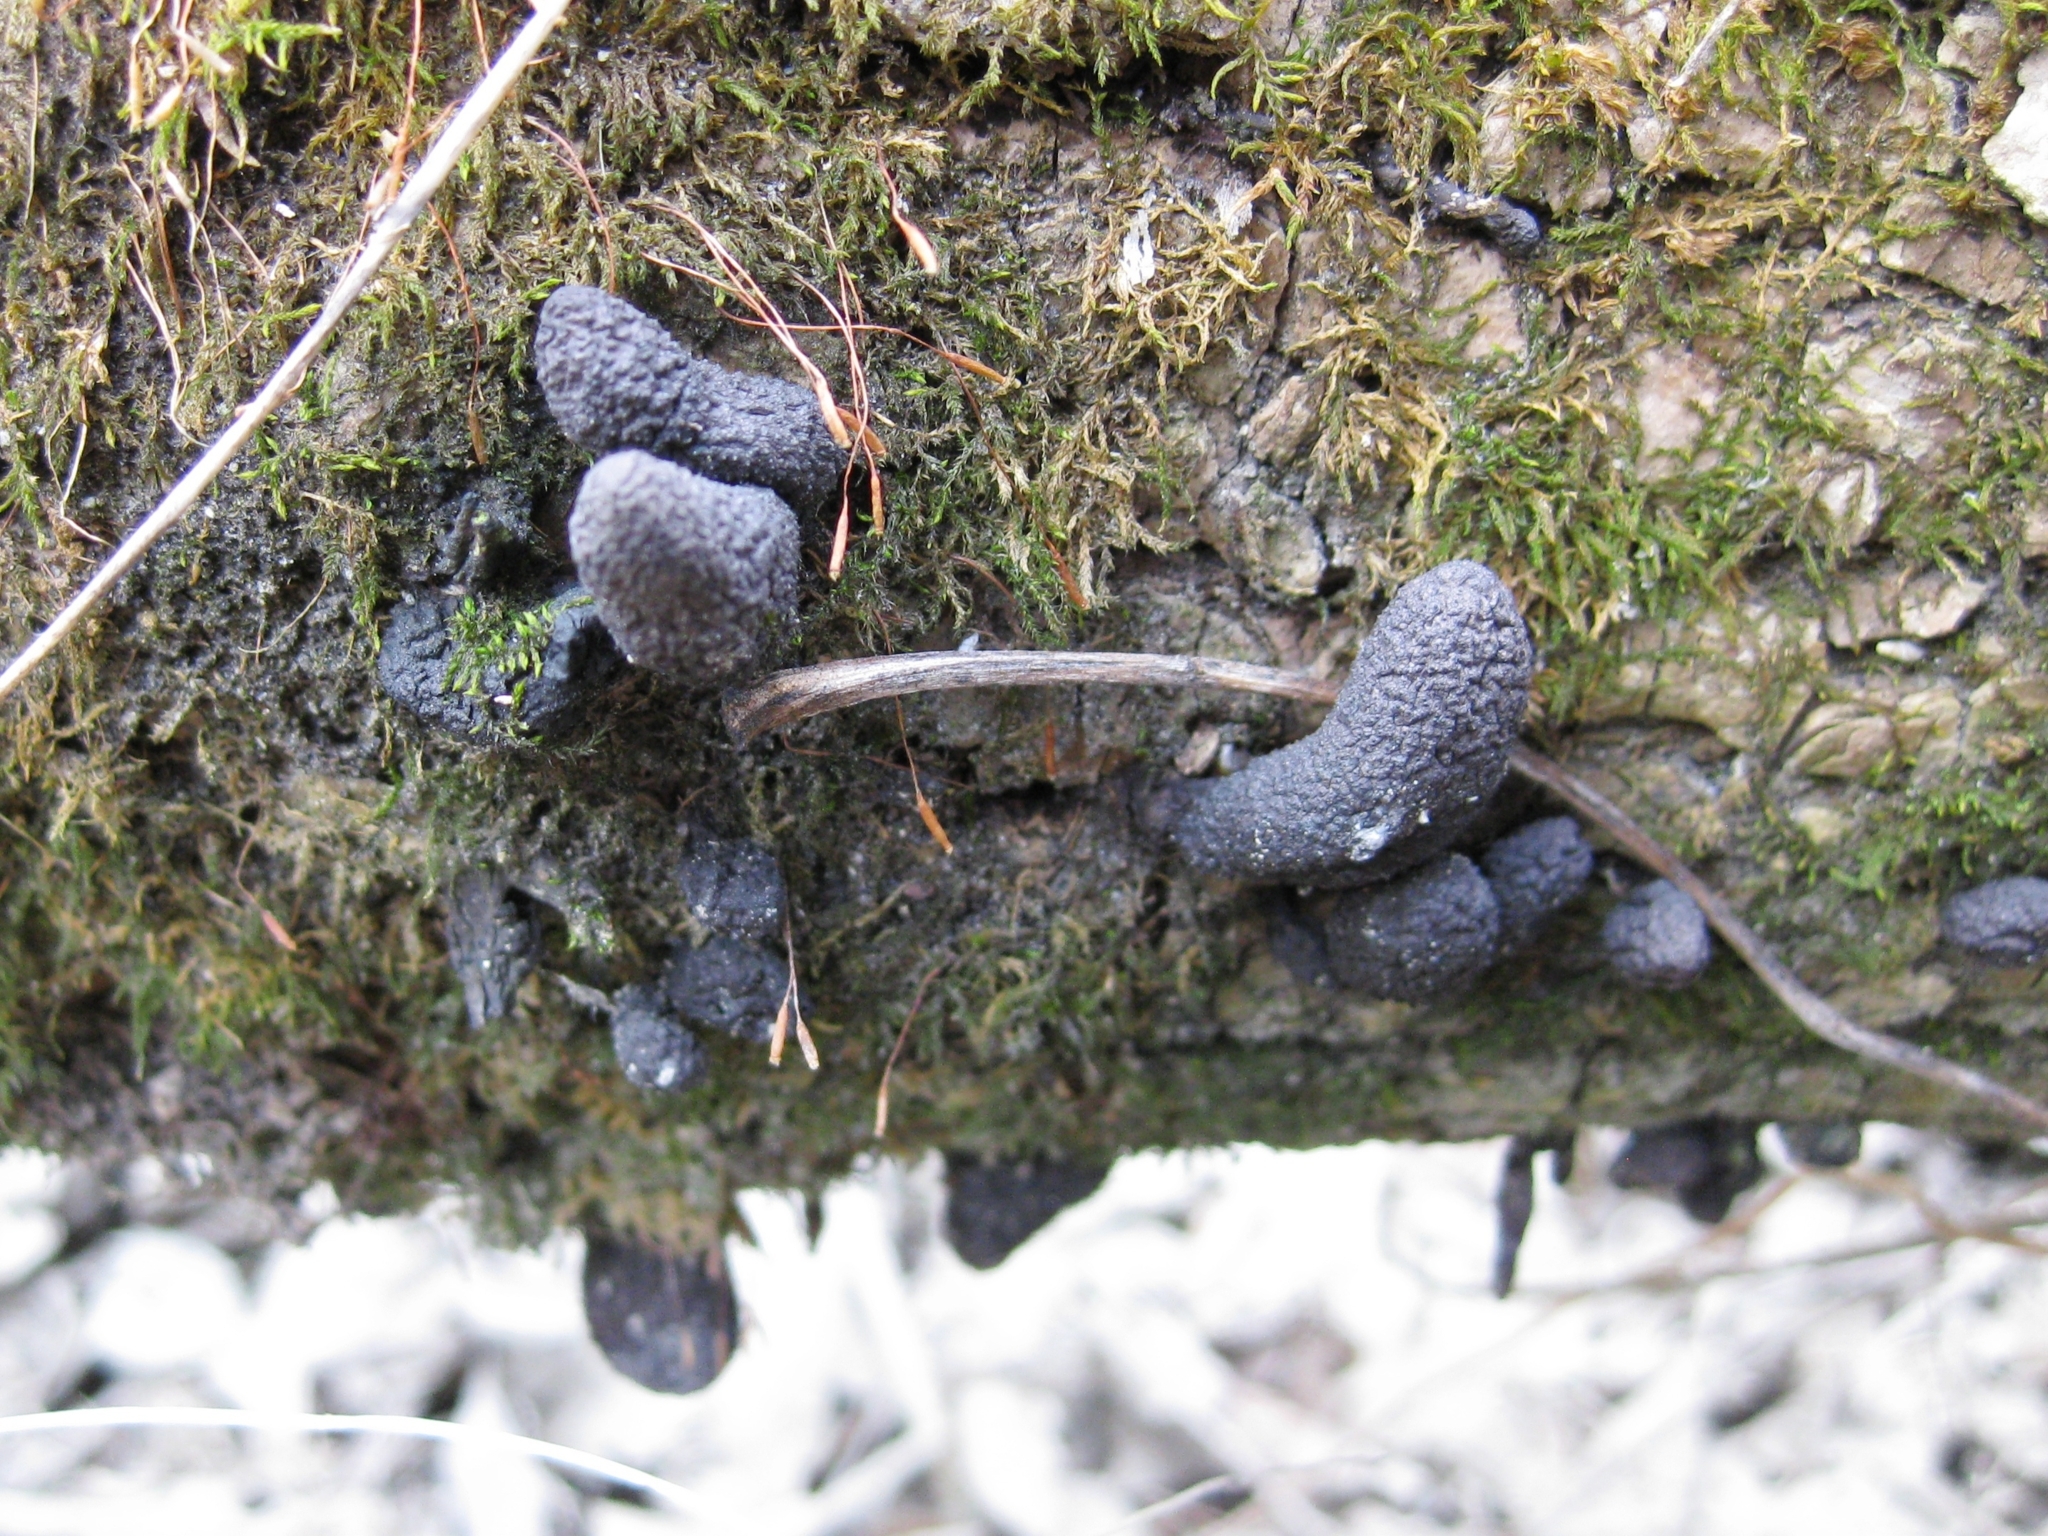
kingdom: Fungi
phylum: Ascomycota
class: Sordariomycetes
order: Xylariales
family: Xylariaceae
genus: Xylaria
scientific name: Xylaria
